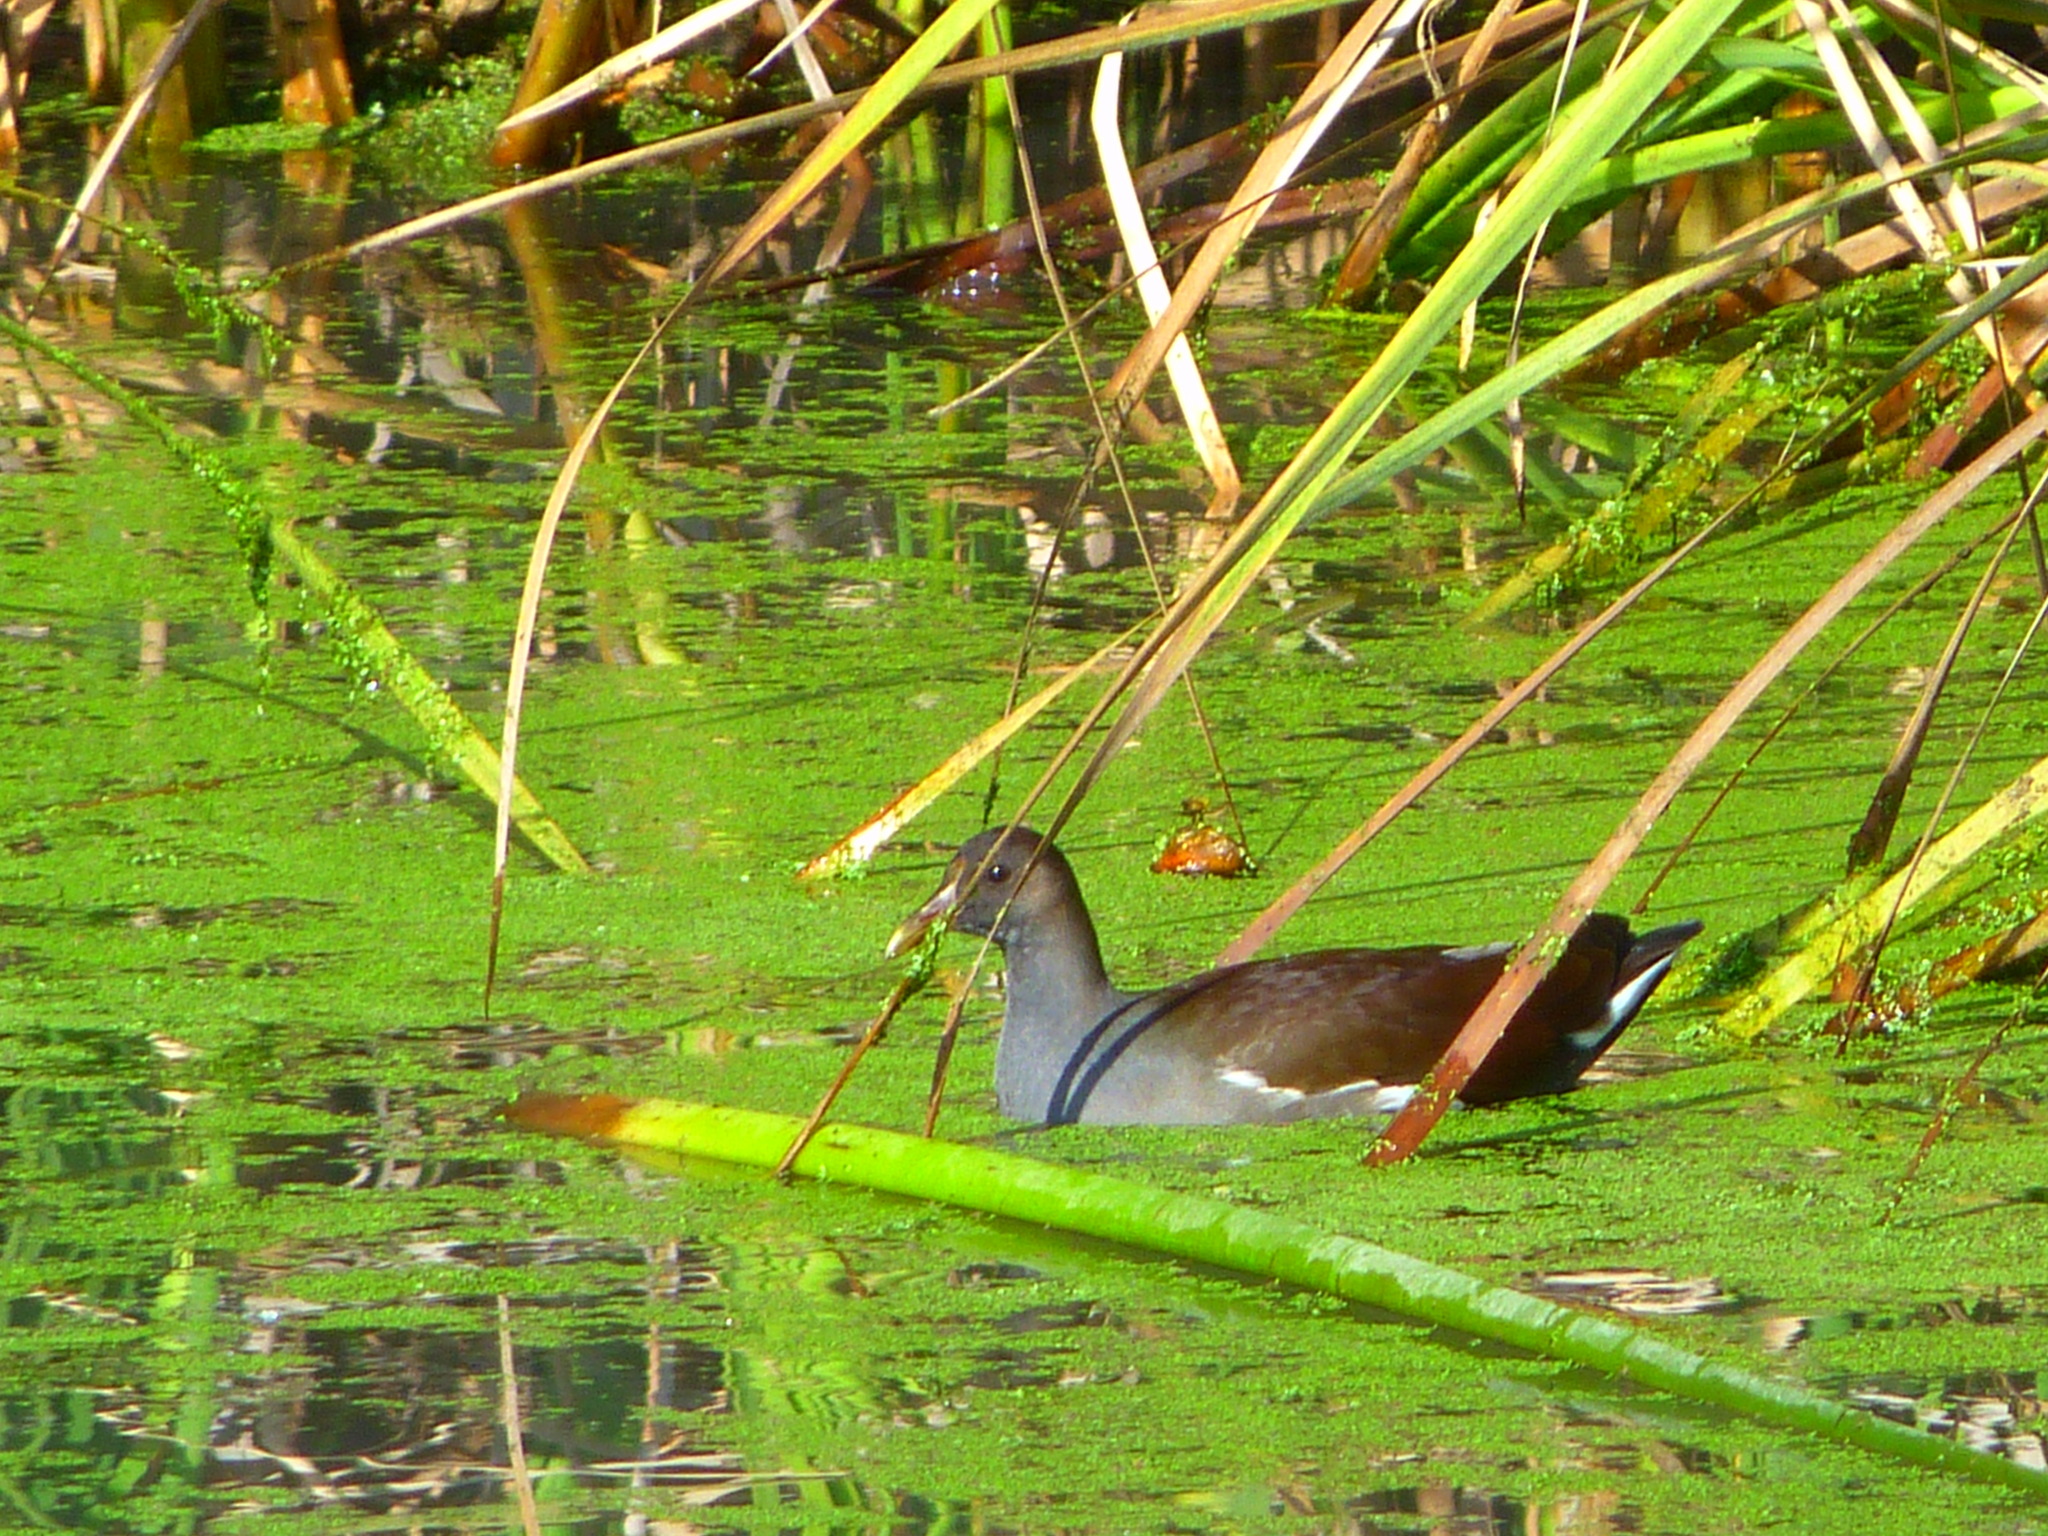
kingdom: Animalia
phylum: Chordata
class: Aves
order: Gruiformes
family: Rallidae
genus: Gallinula
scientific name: Gallinula chloropus
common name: Common moorhen
